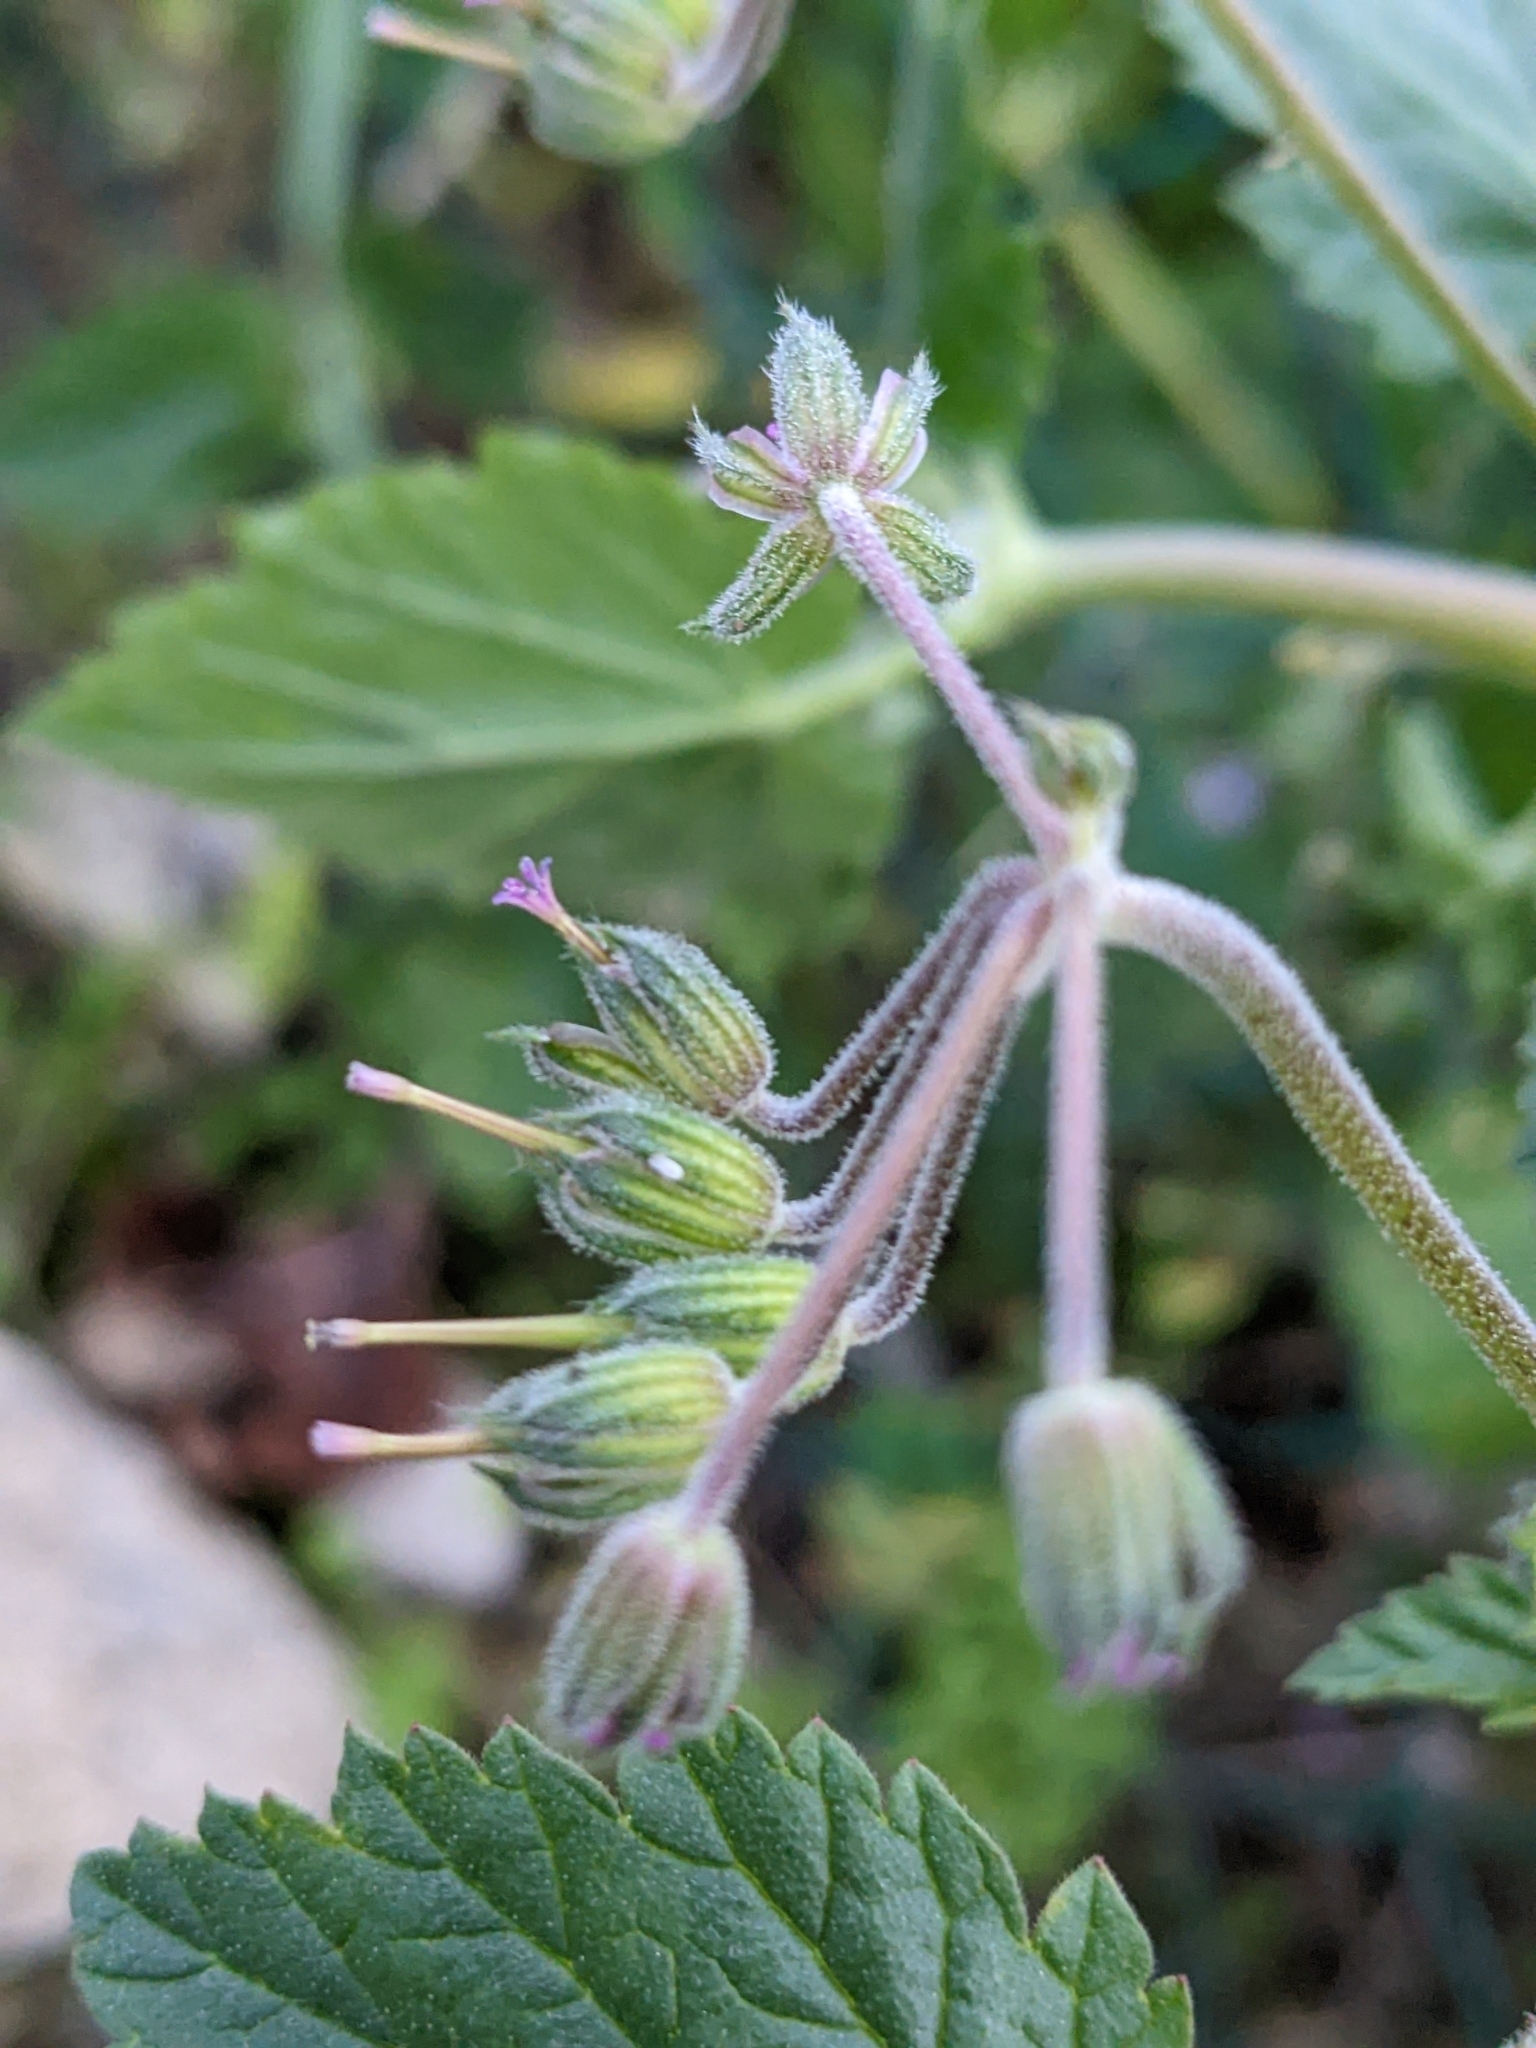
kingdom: Plantae
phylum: Tracheophyta
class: Magnoliopsida
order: Geraniales
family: Geraniaceae
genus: Erodium
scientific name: Erodium malacoides
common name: Soft stork's-bill
